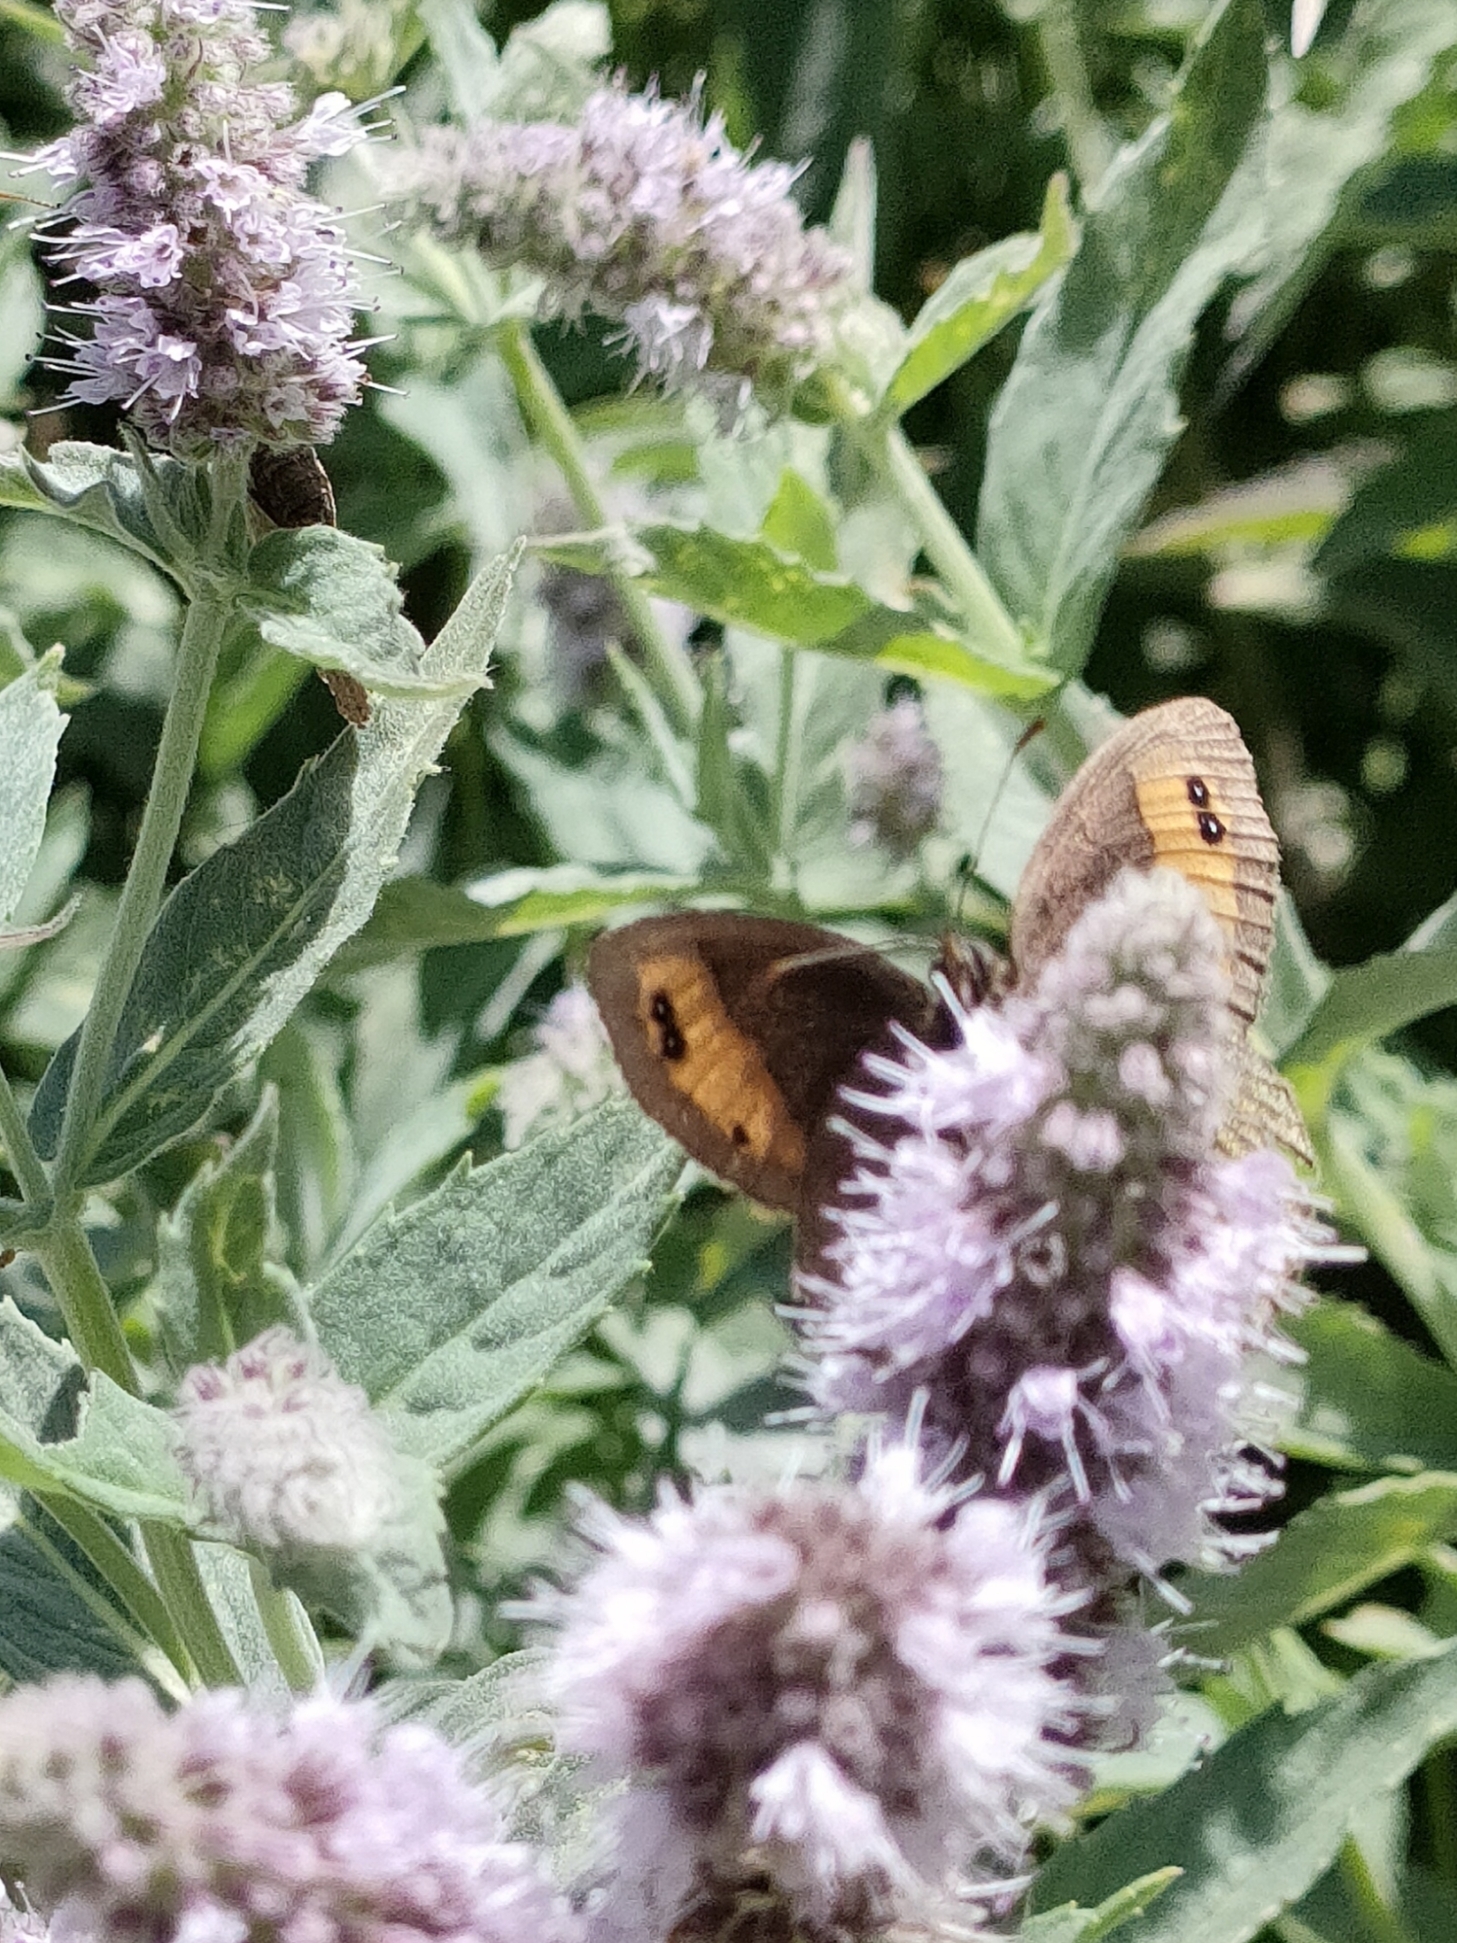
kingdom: Animalia
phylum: Arthropoda
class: Insecta
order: Lepidoptera
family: Nymphalidae
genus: Erebia
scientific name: Erebia meolans
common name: Piedmont ringlet
